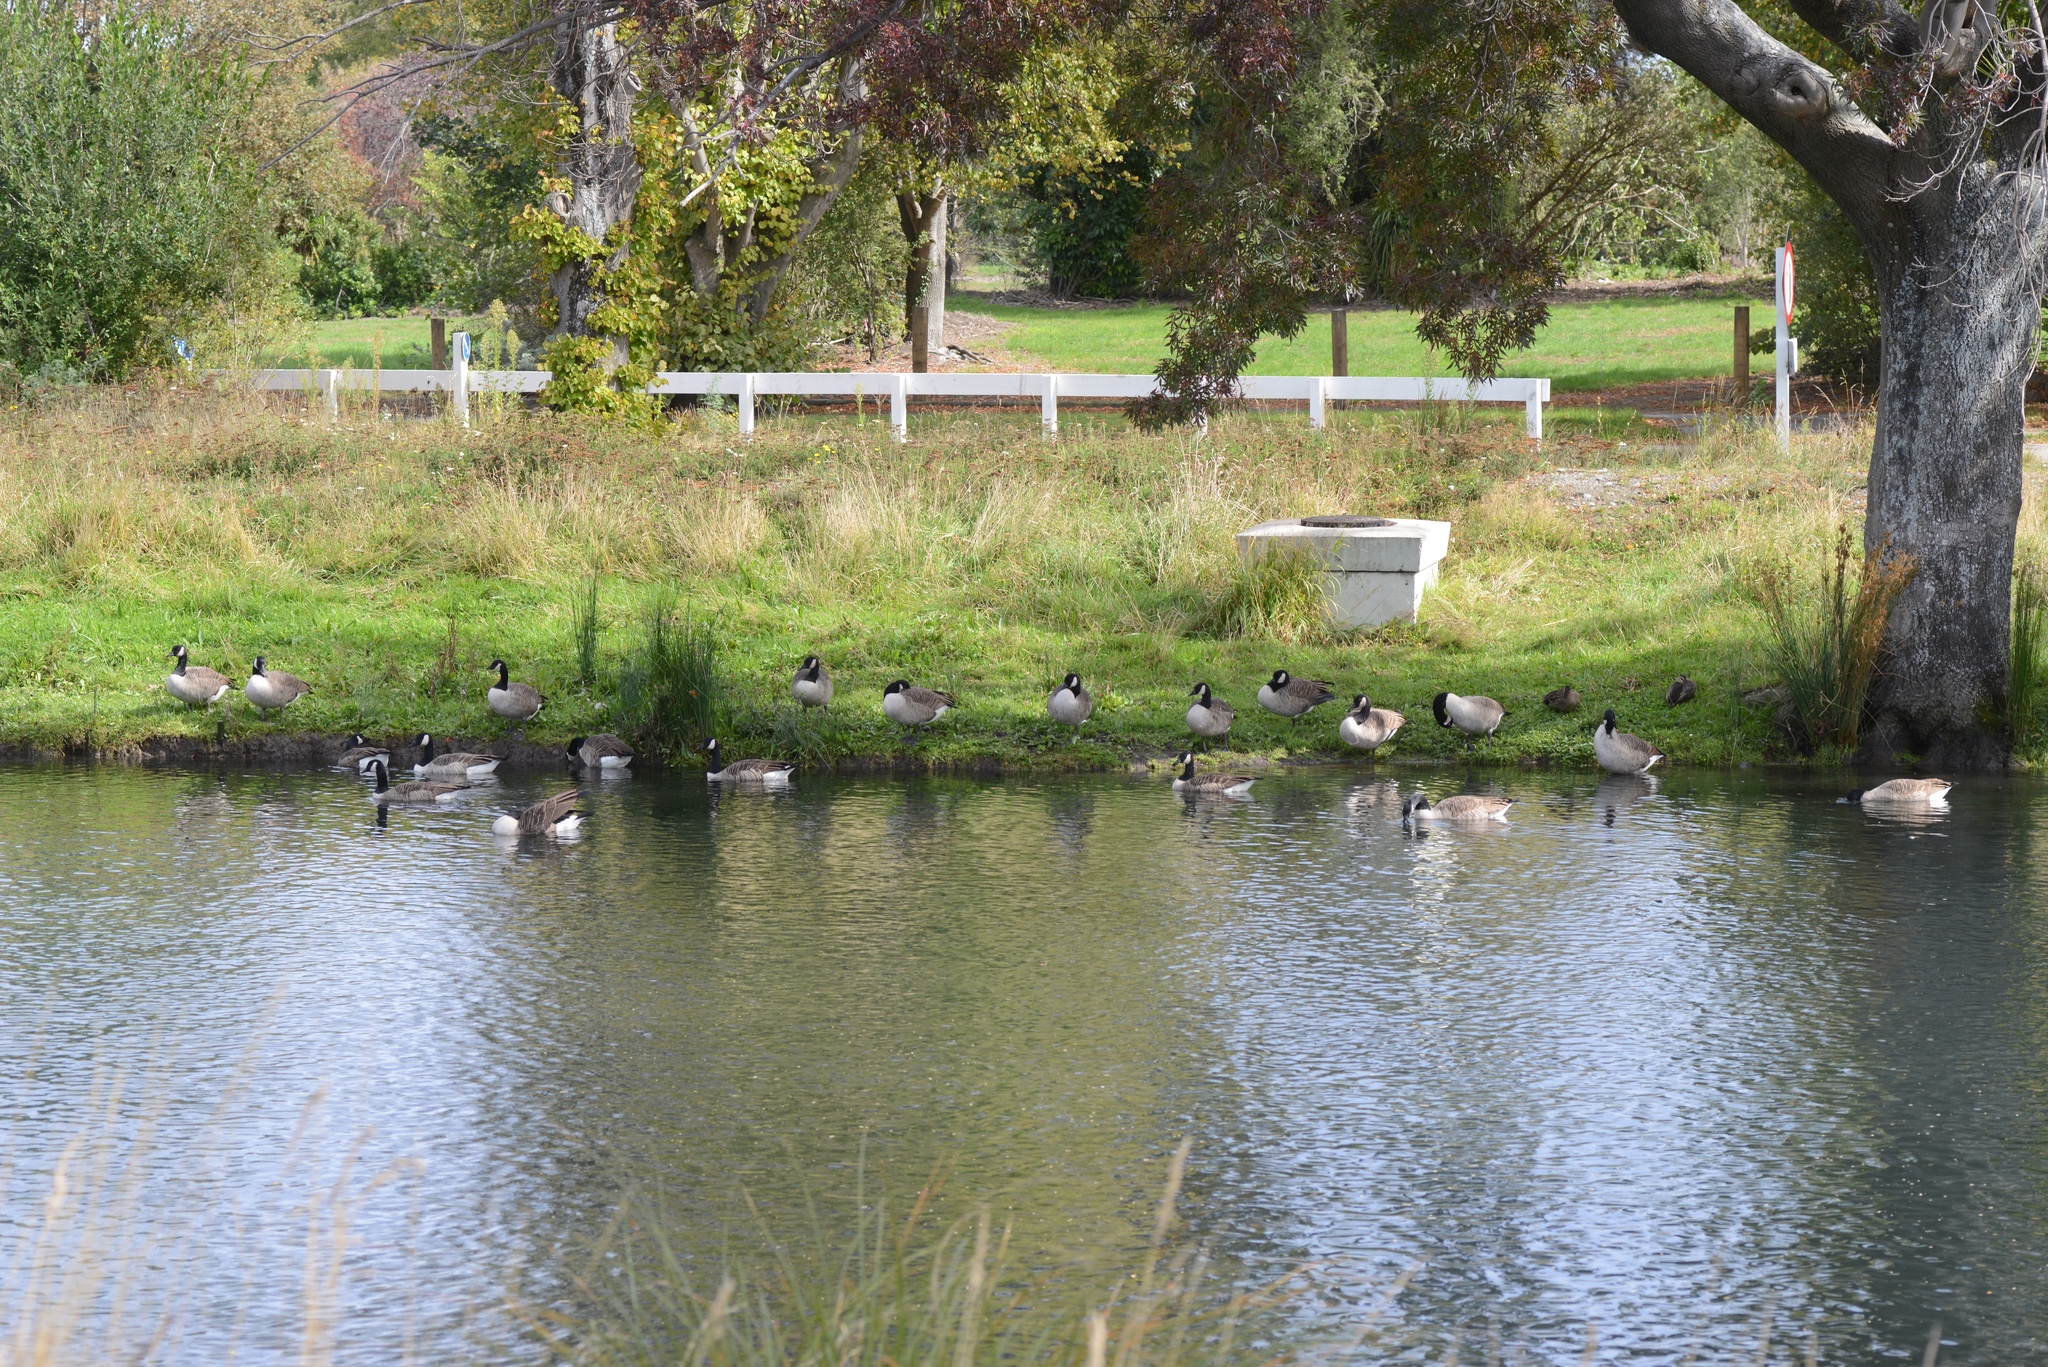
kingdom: Animalia
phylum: Chordata
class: Aves
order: Anseriformes
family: Anatidae
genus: Branta
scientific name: Branta canadensis
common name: Canada goose
